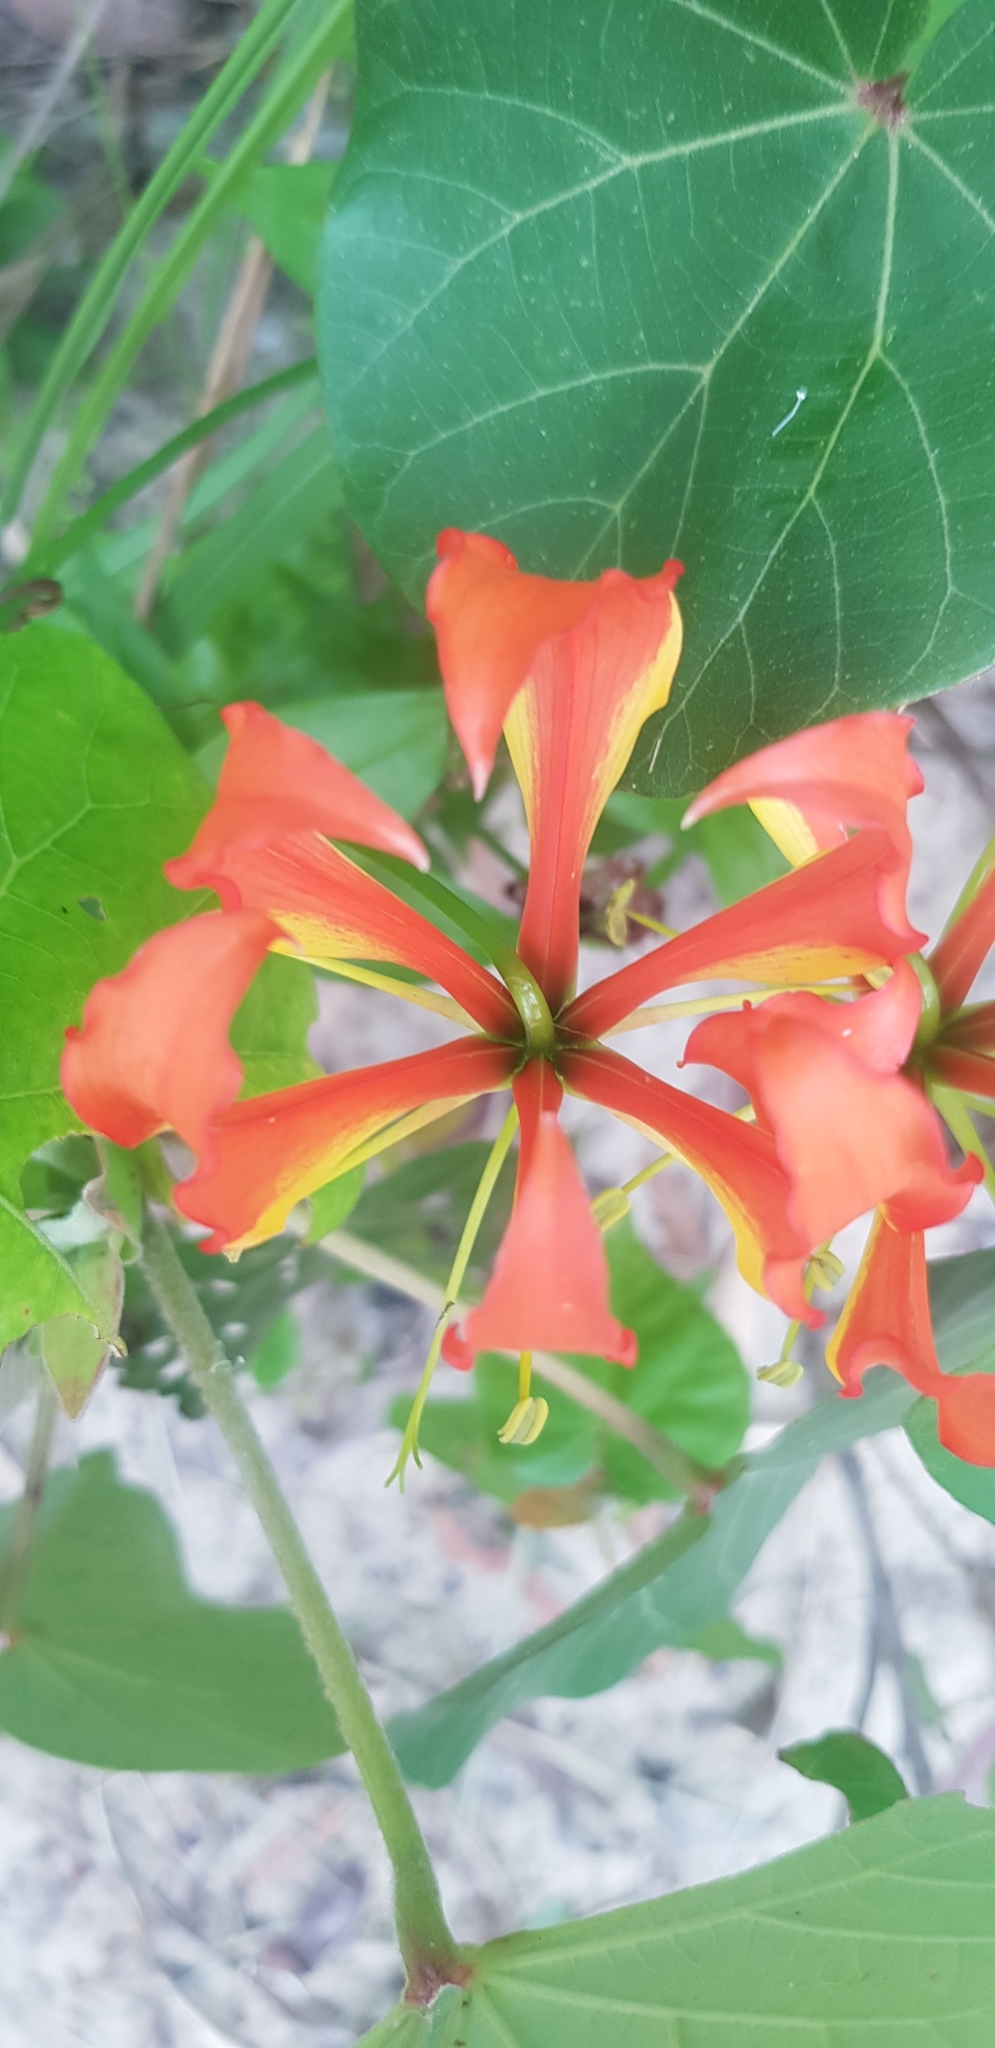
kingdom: Plantae
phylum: Tracheophyta
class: Liliopsida
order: Liliales
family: Colchicaceae
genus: Gloriosa
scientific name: Gloriosa superba
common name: Flame lily
